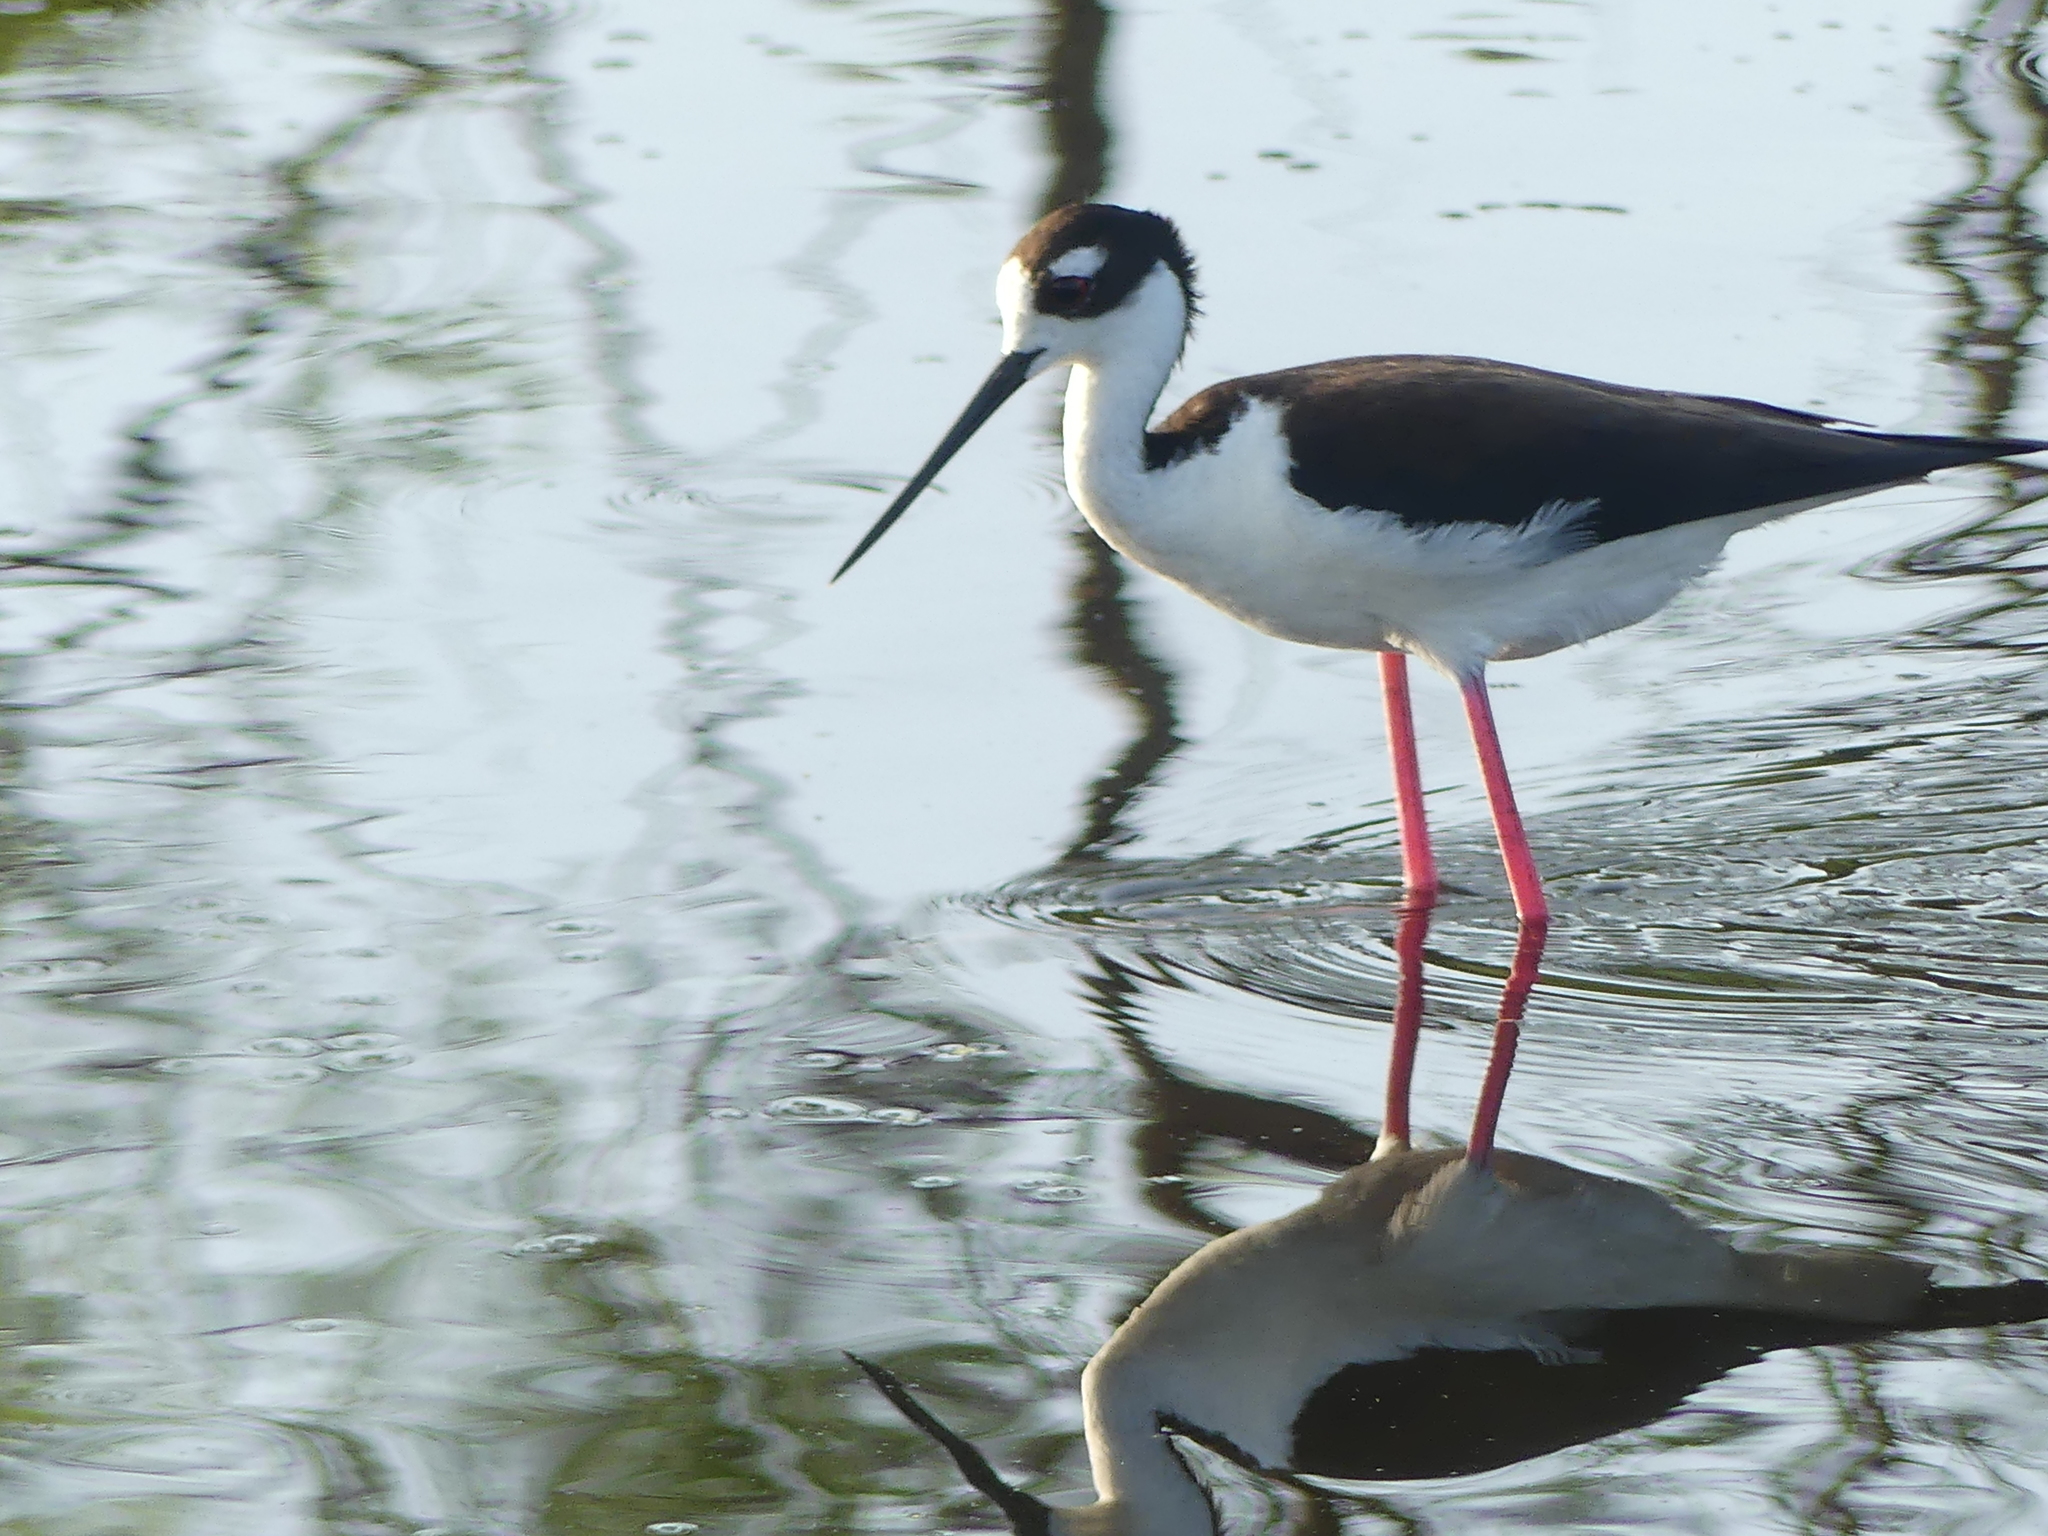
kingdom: Animalia
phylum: Chordata
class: Aves
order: Charadriiformes
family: Recurvirostridae
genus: Himantopus
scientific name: Himantopus mexicanus
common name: Black-necked stilt
